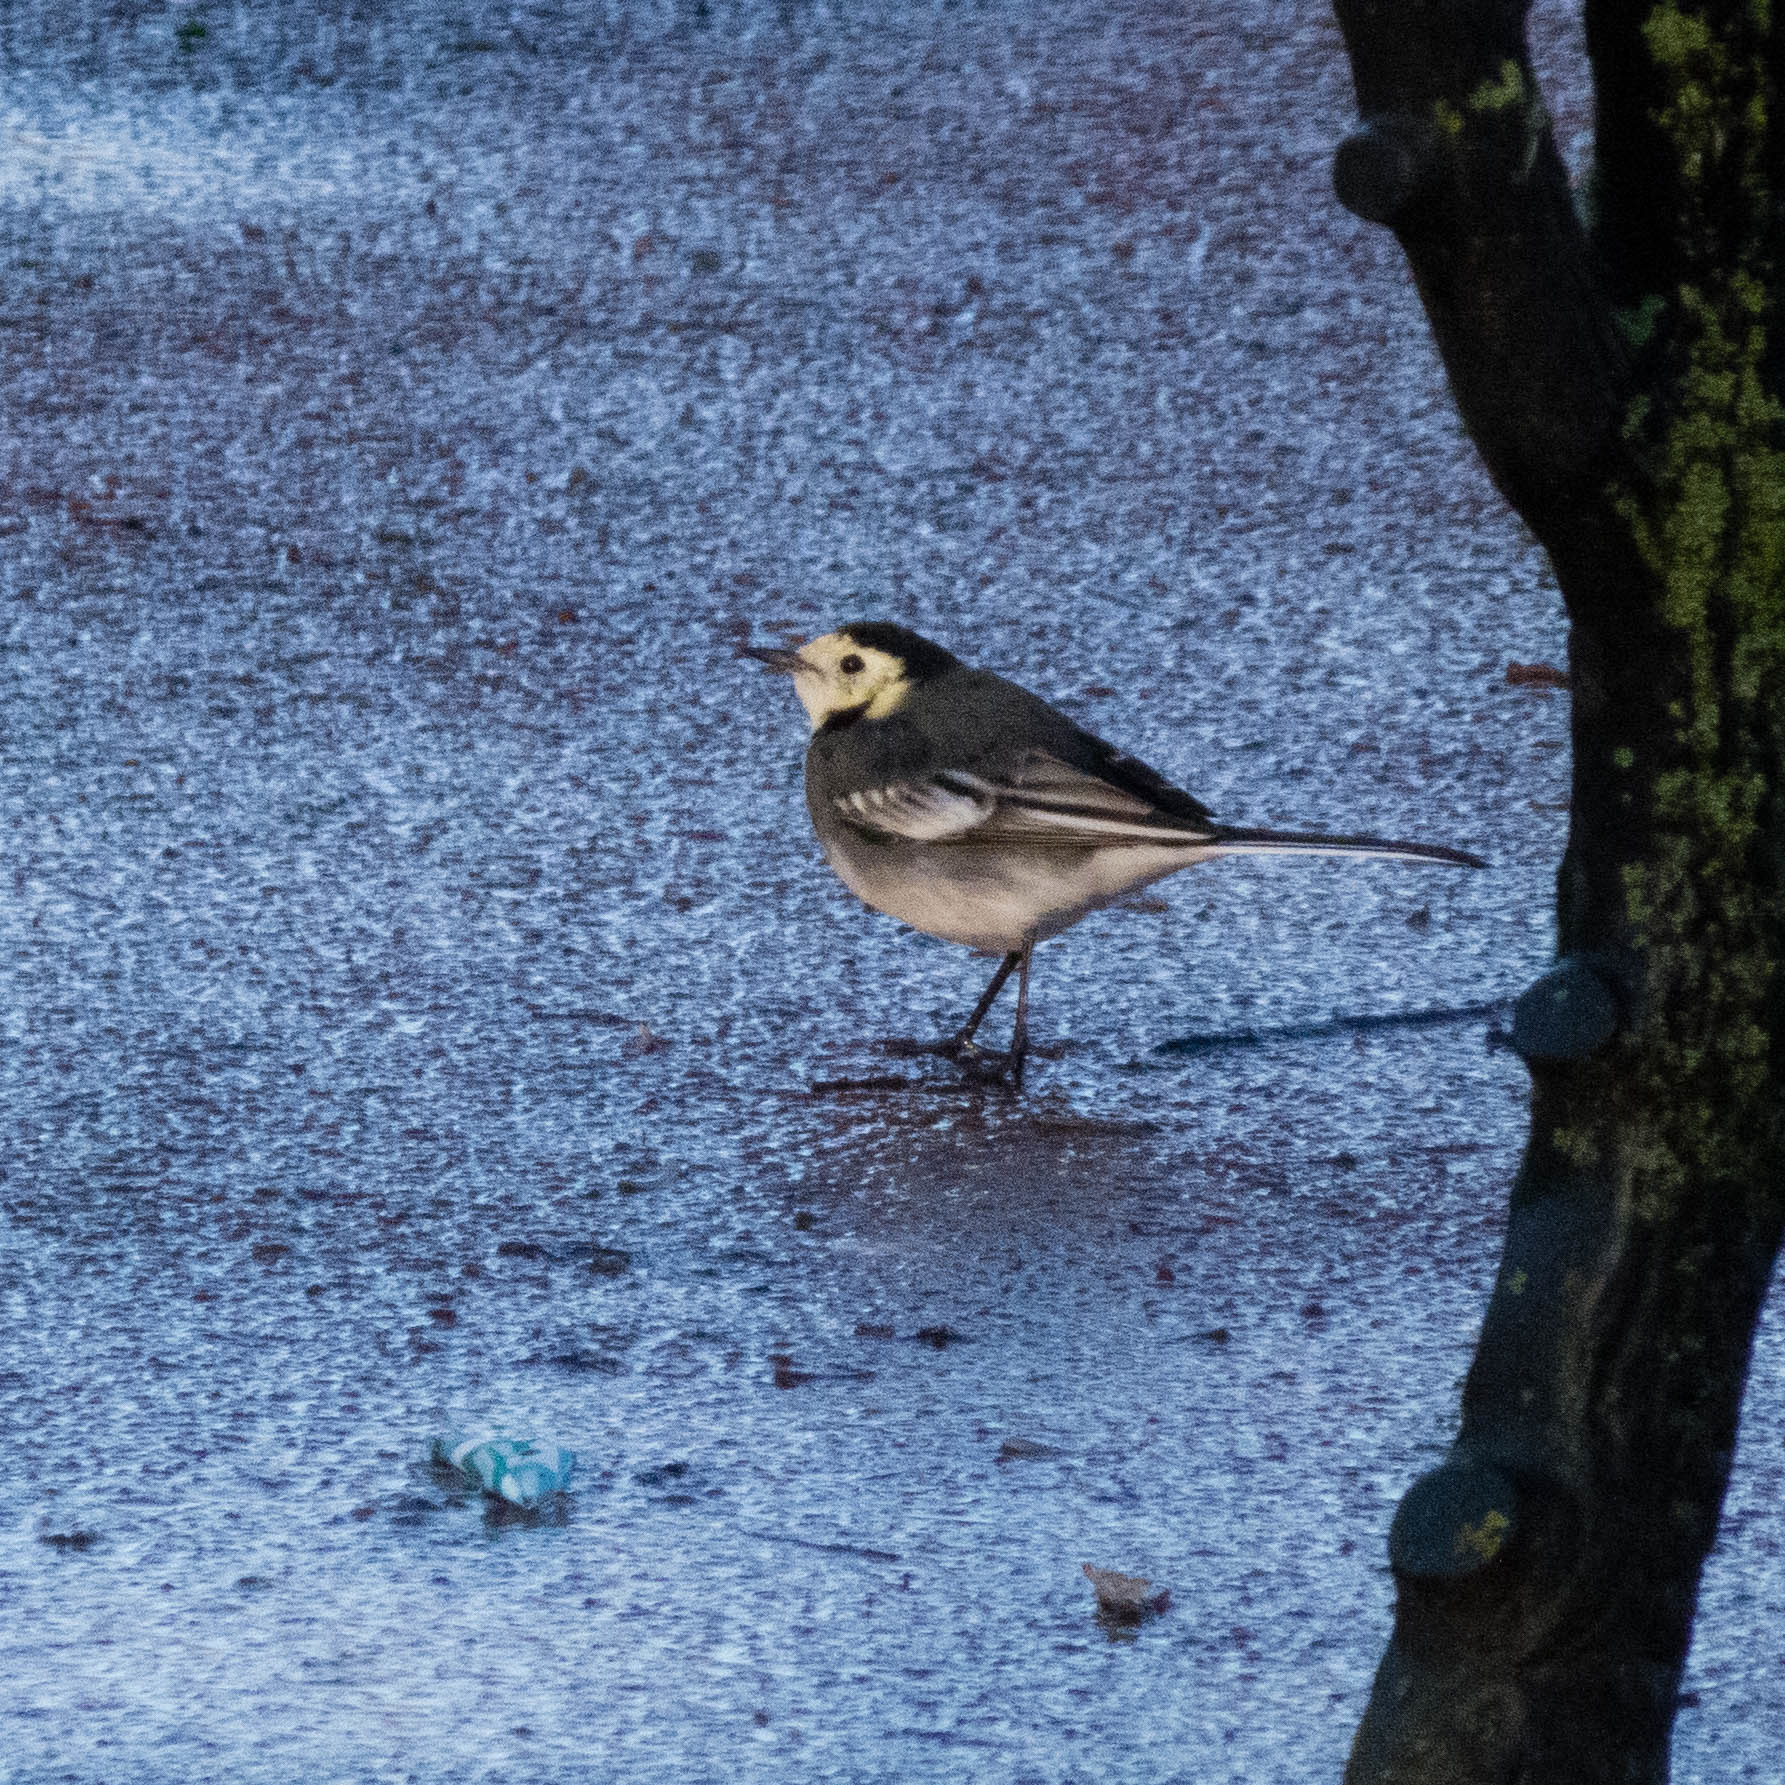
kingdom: Animalia
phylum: Chordata
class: Aves
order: Passeriformes
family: Motacillidae
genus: Motacilla
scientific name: Motacilla alba
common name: White wagtail
